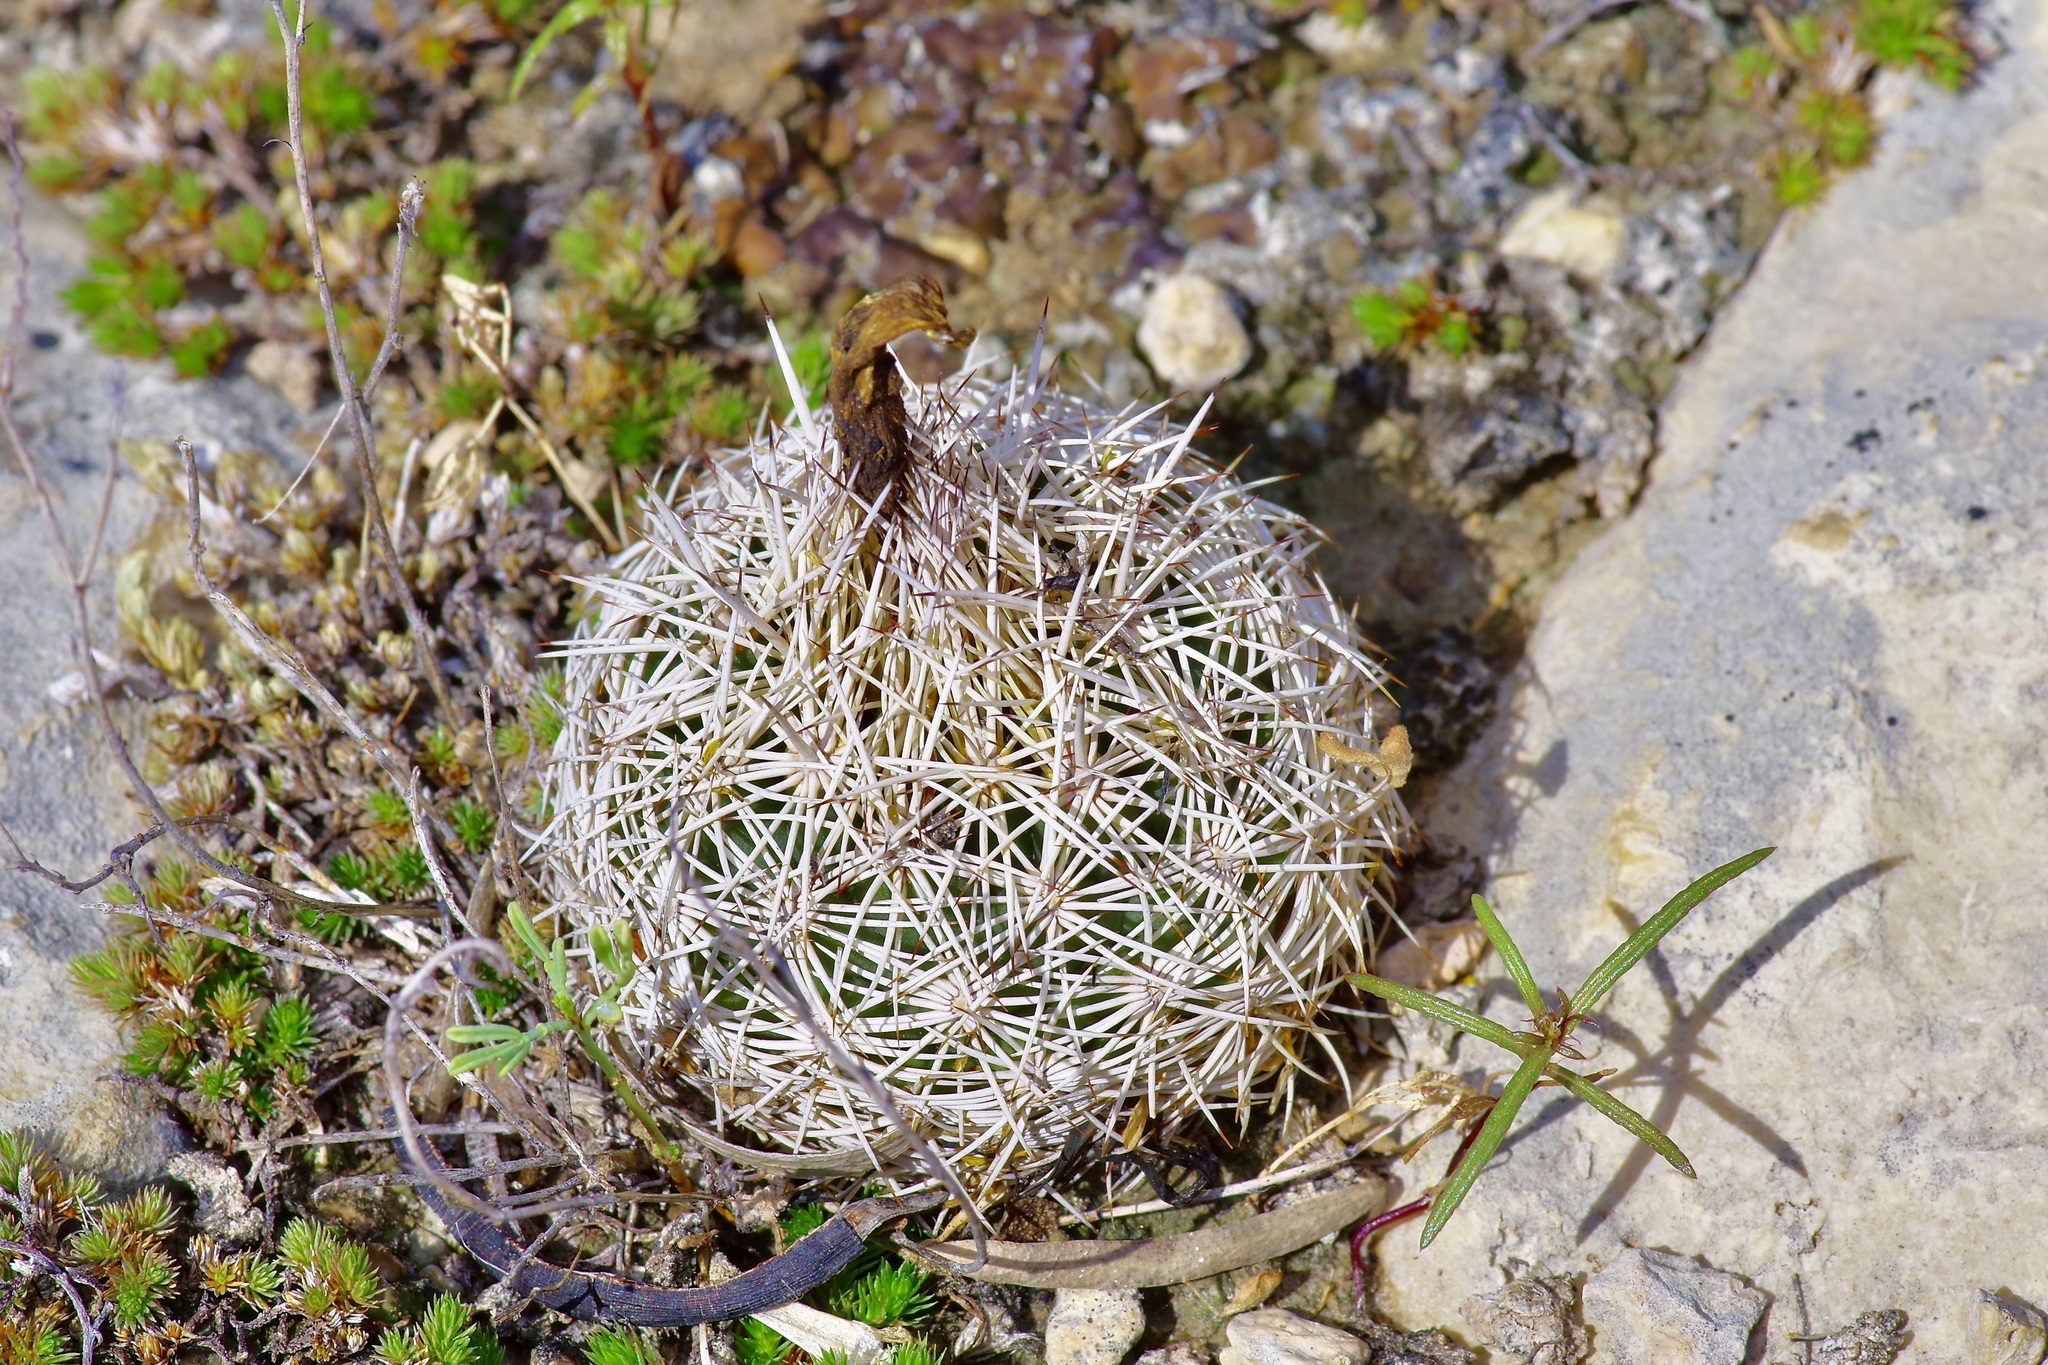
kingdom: Plantae
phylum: Tracheophyta
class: Magnoliopsida
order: Caryophyllales
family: Cactaceae
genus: Coryphantha
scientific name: Coryphantha echinus
